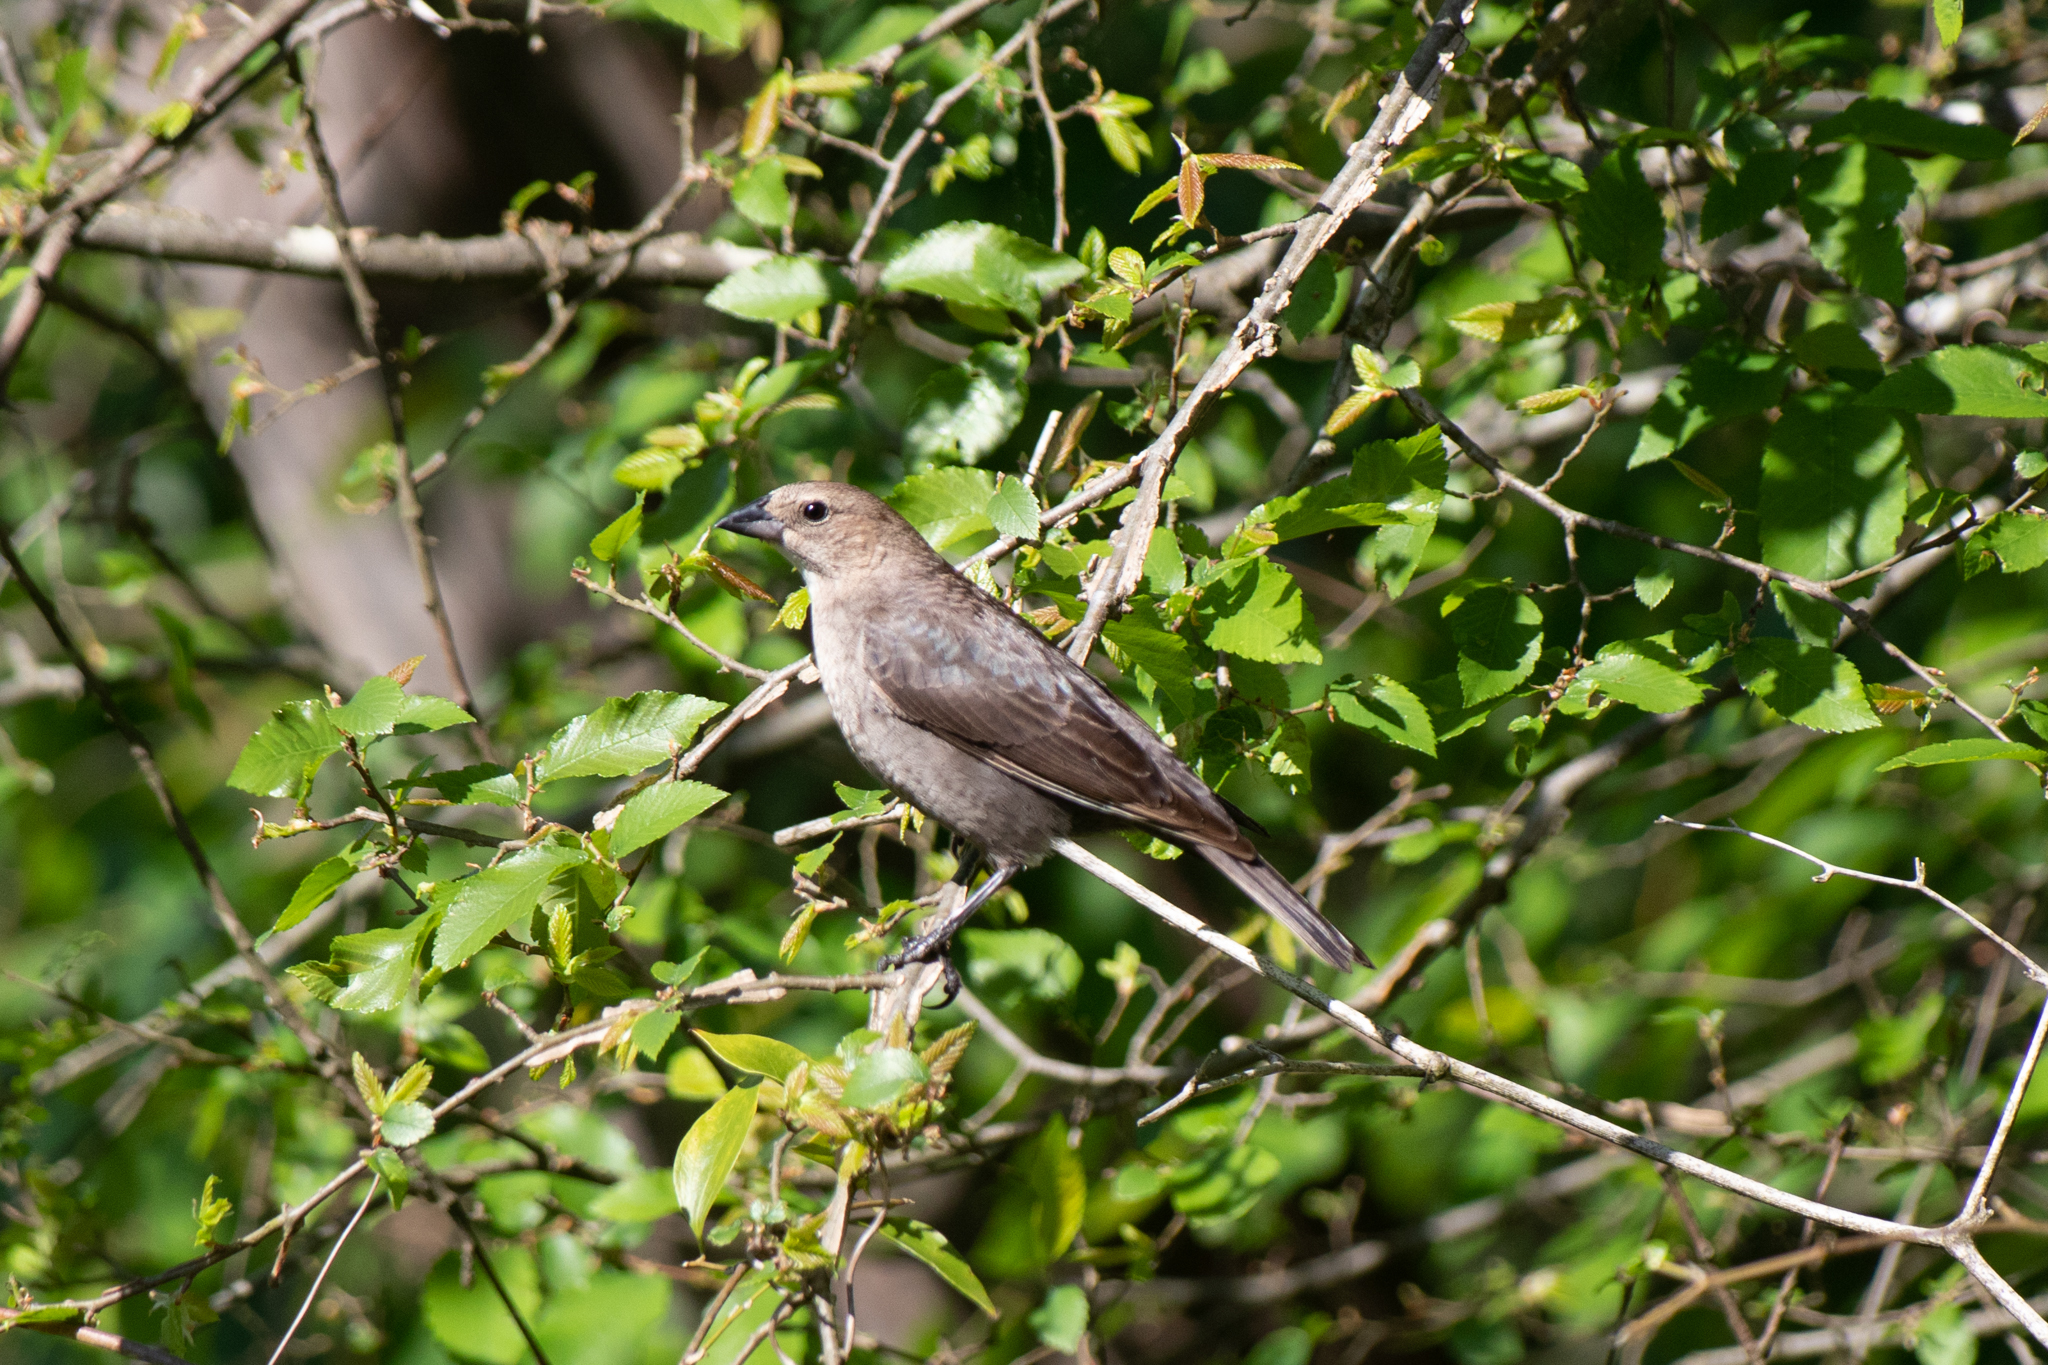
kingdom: Animalia
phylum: Chordata
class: Aves
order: Passeriformes
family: Icteridae
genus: Molothrus
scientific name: Molothrus ater
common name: Brown-headed cowbird
